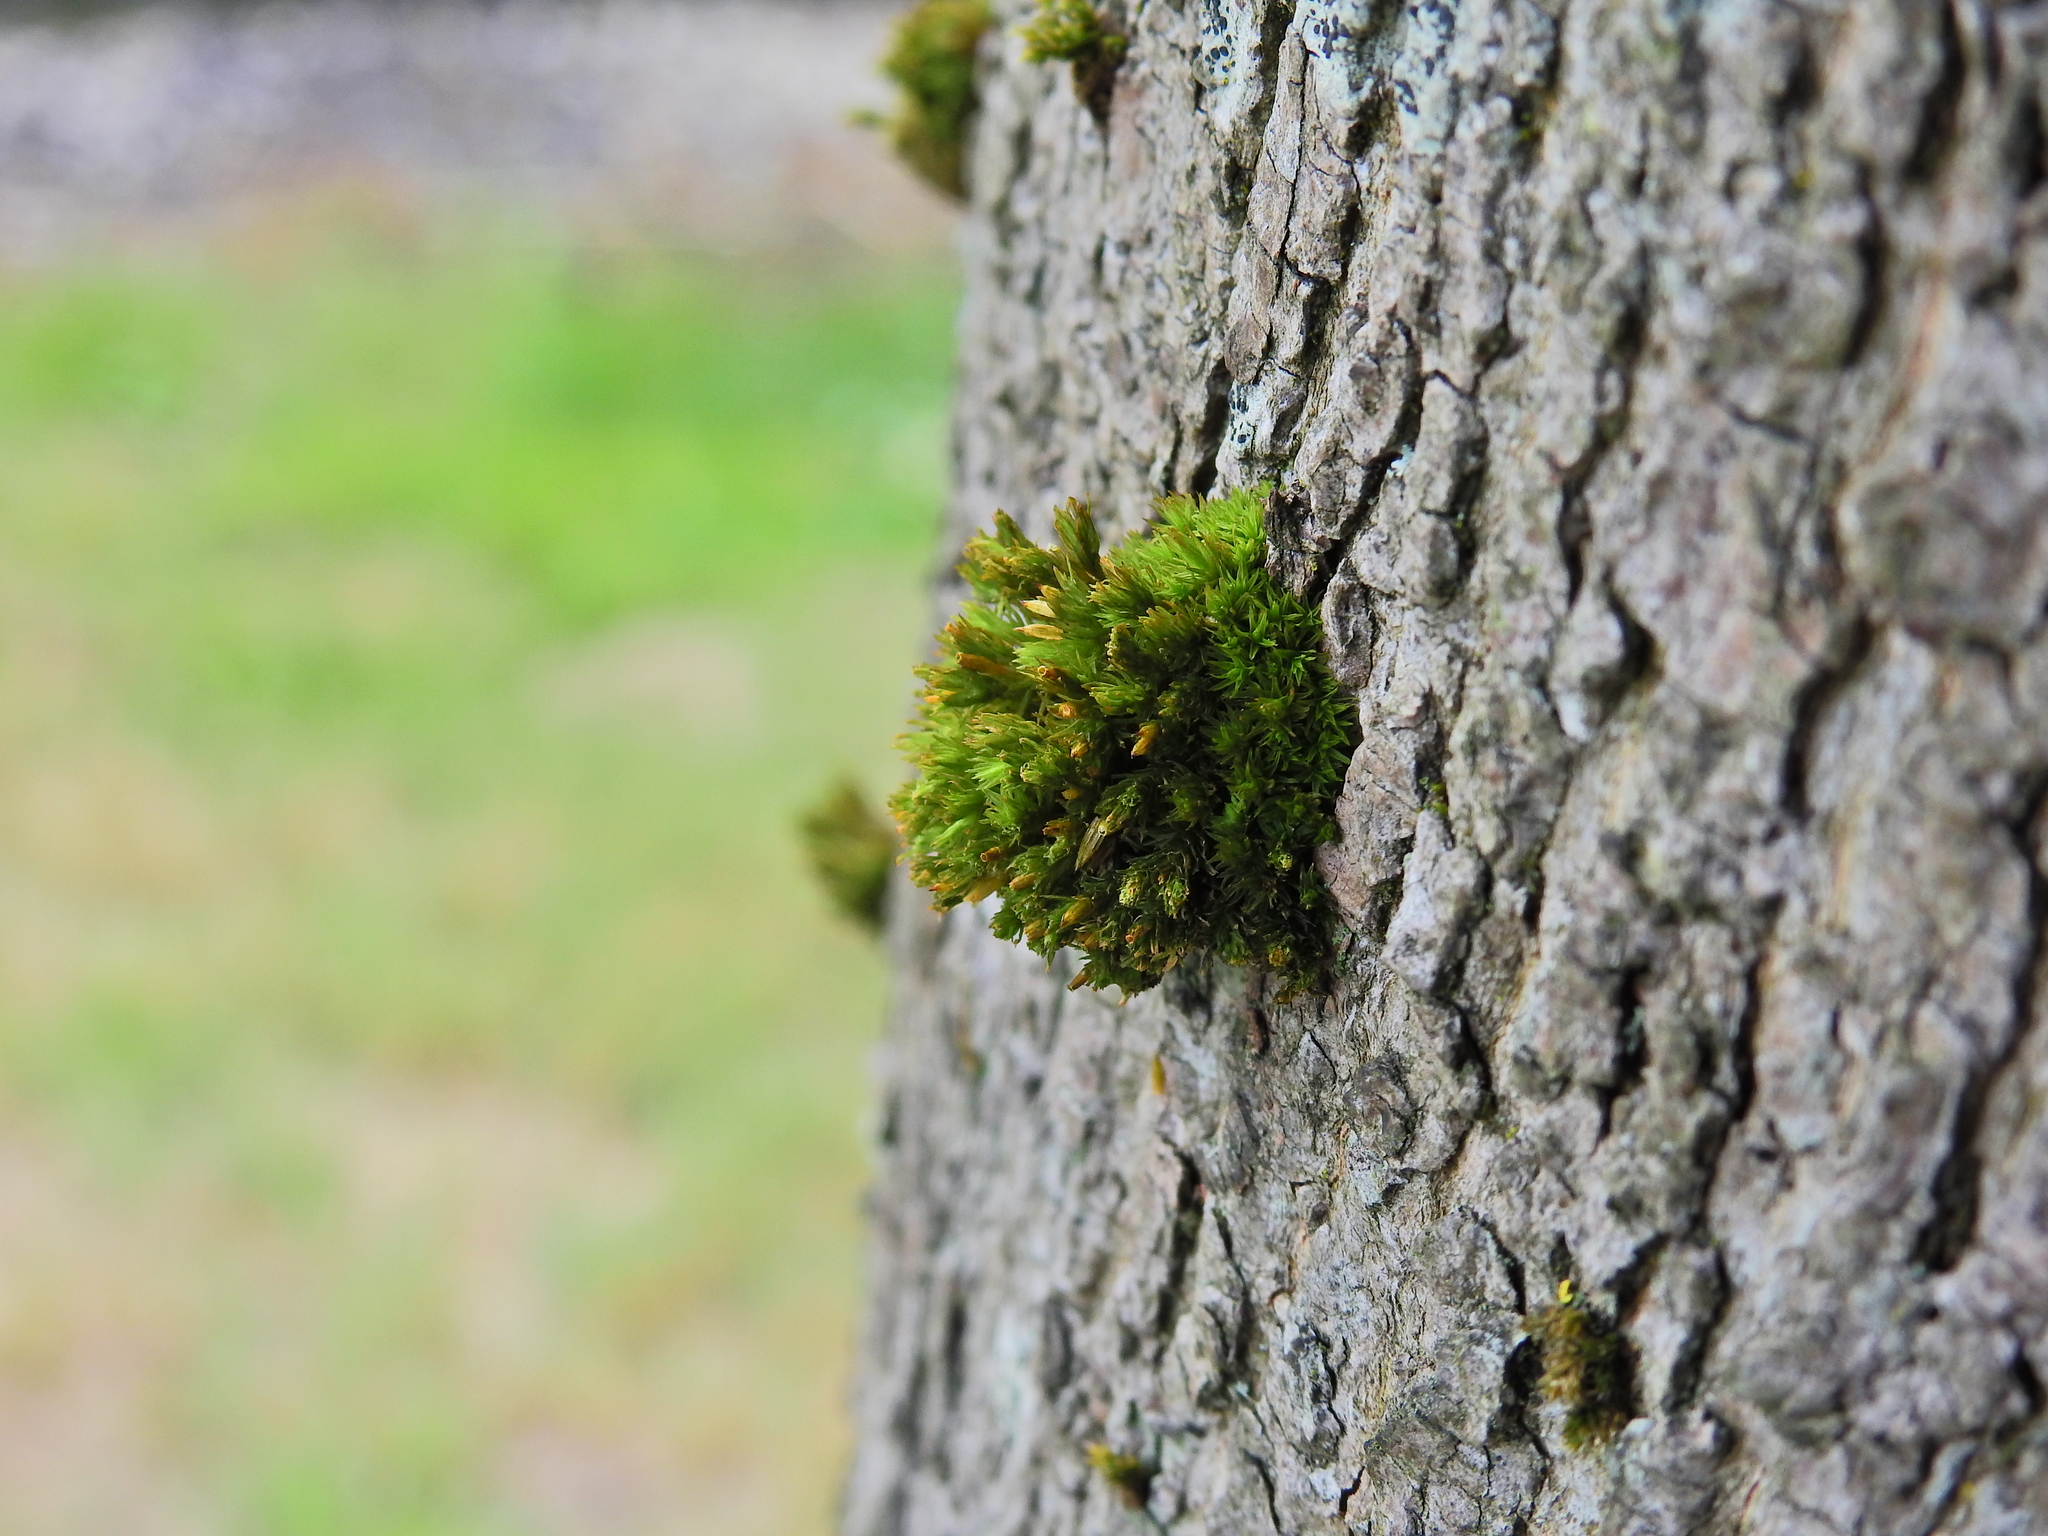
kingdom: Plantae
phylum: Bryophyta
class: Bryopsida
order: Orthotrichales
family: Orthotrichaceae
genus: Orthotrichum
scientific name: Orthotrichum stramineum
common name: Straw bristle-moss
